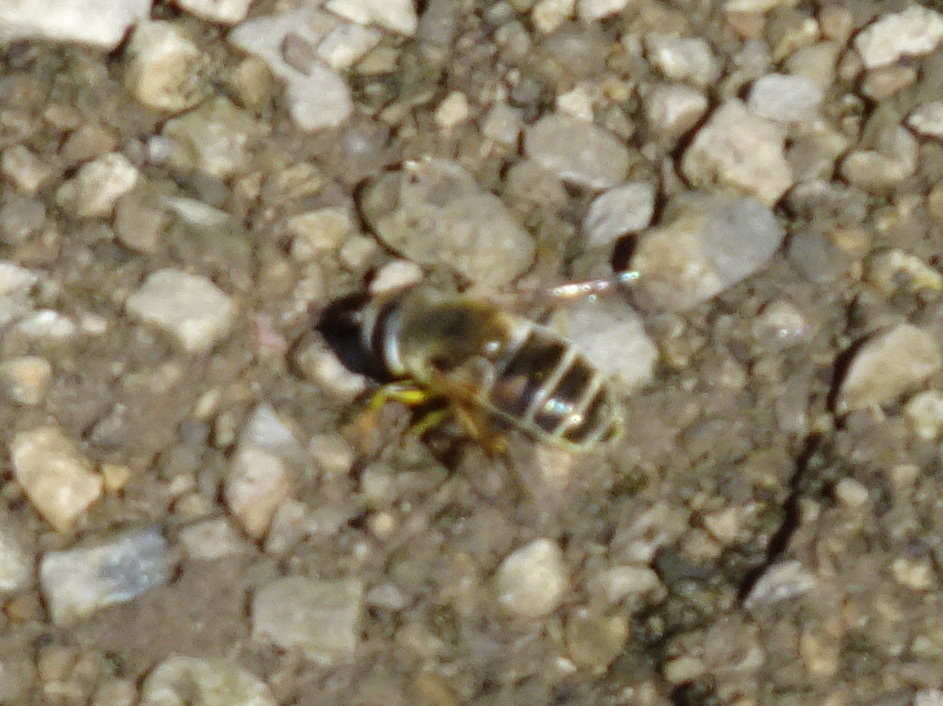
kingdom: Animalia
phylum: Arthropoda
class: Insecta
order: Diptera
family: Syrphidae
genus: Eristalis
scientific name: Eristalis stipator
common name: Yellow-shouldered drone fly
